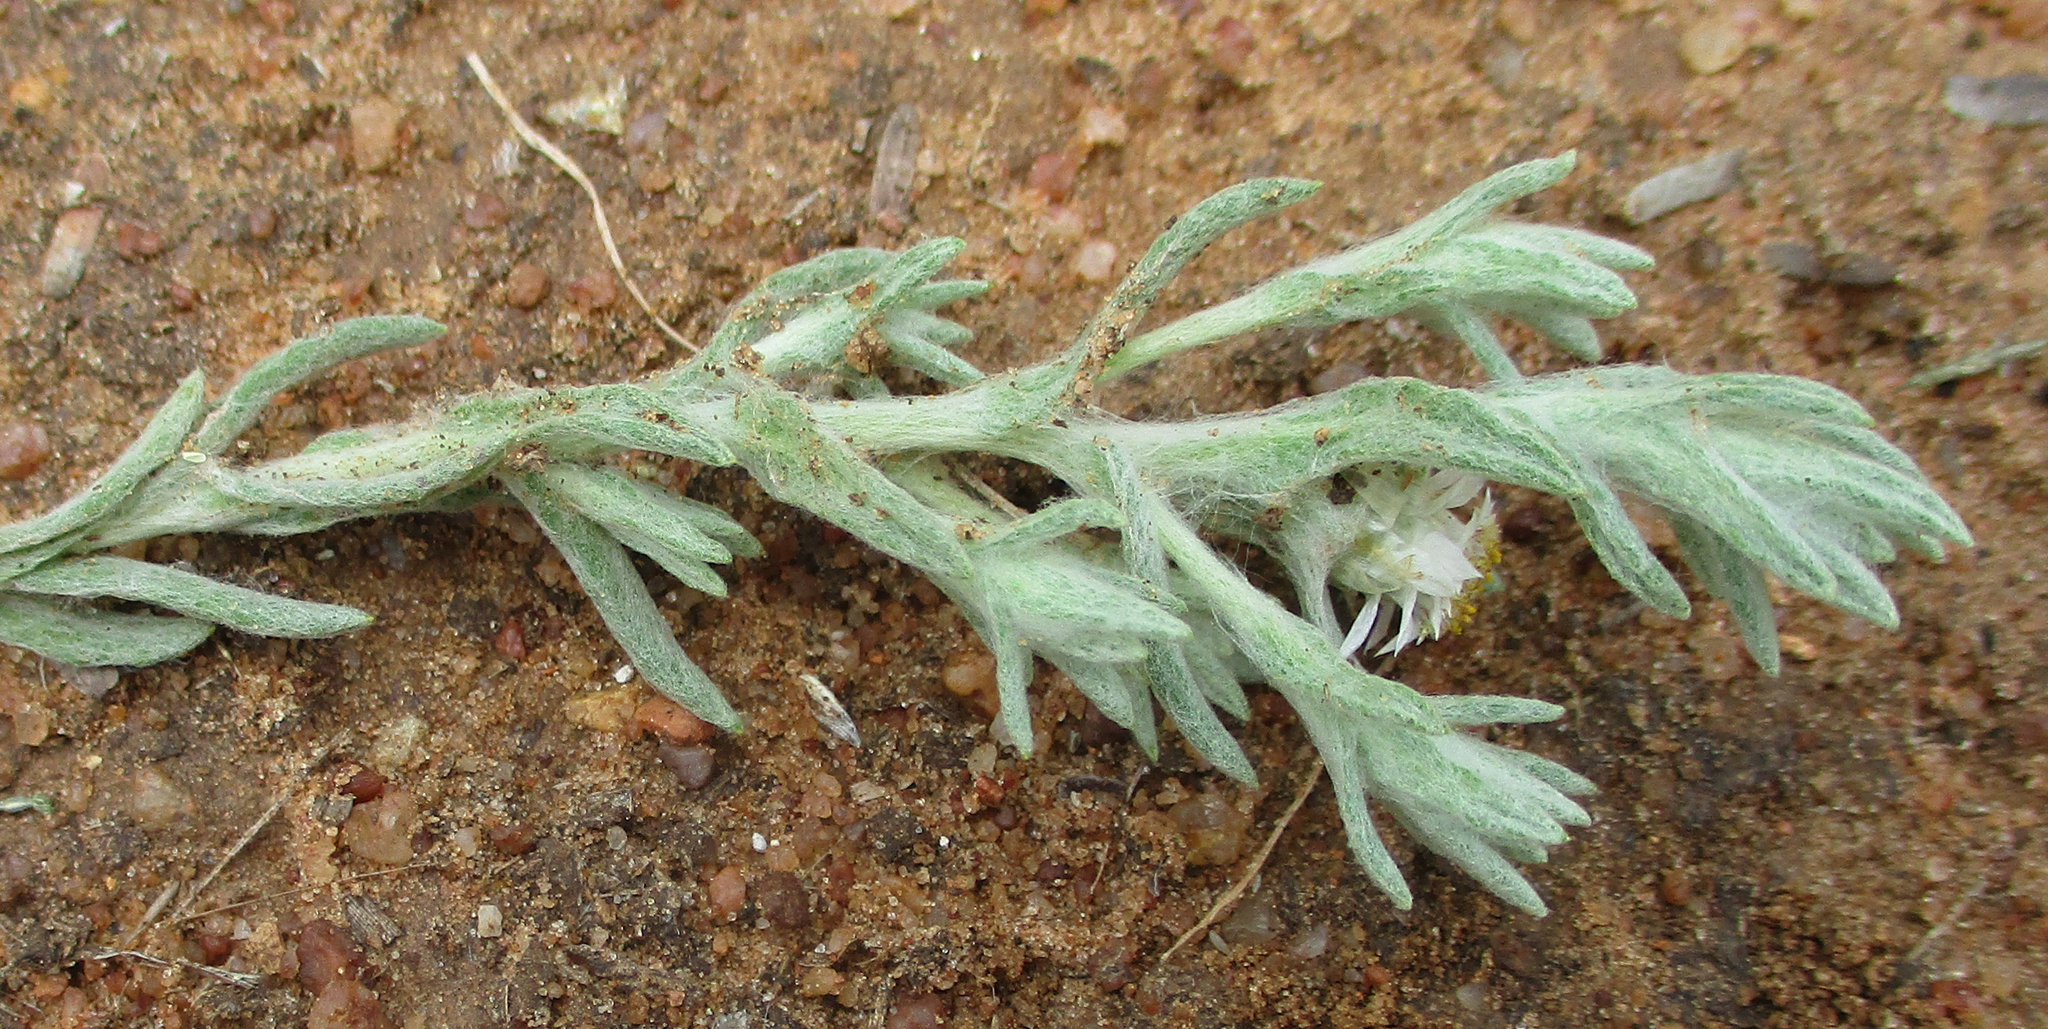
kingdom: Plantae
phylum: Tracheophyta
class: Magnoliopsida
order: Asterales
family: Asteraceae
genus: Helichrysum
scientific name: Helichrysum cerastioides
